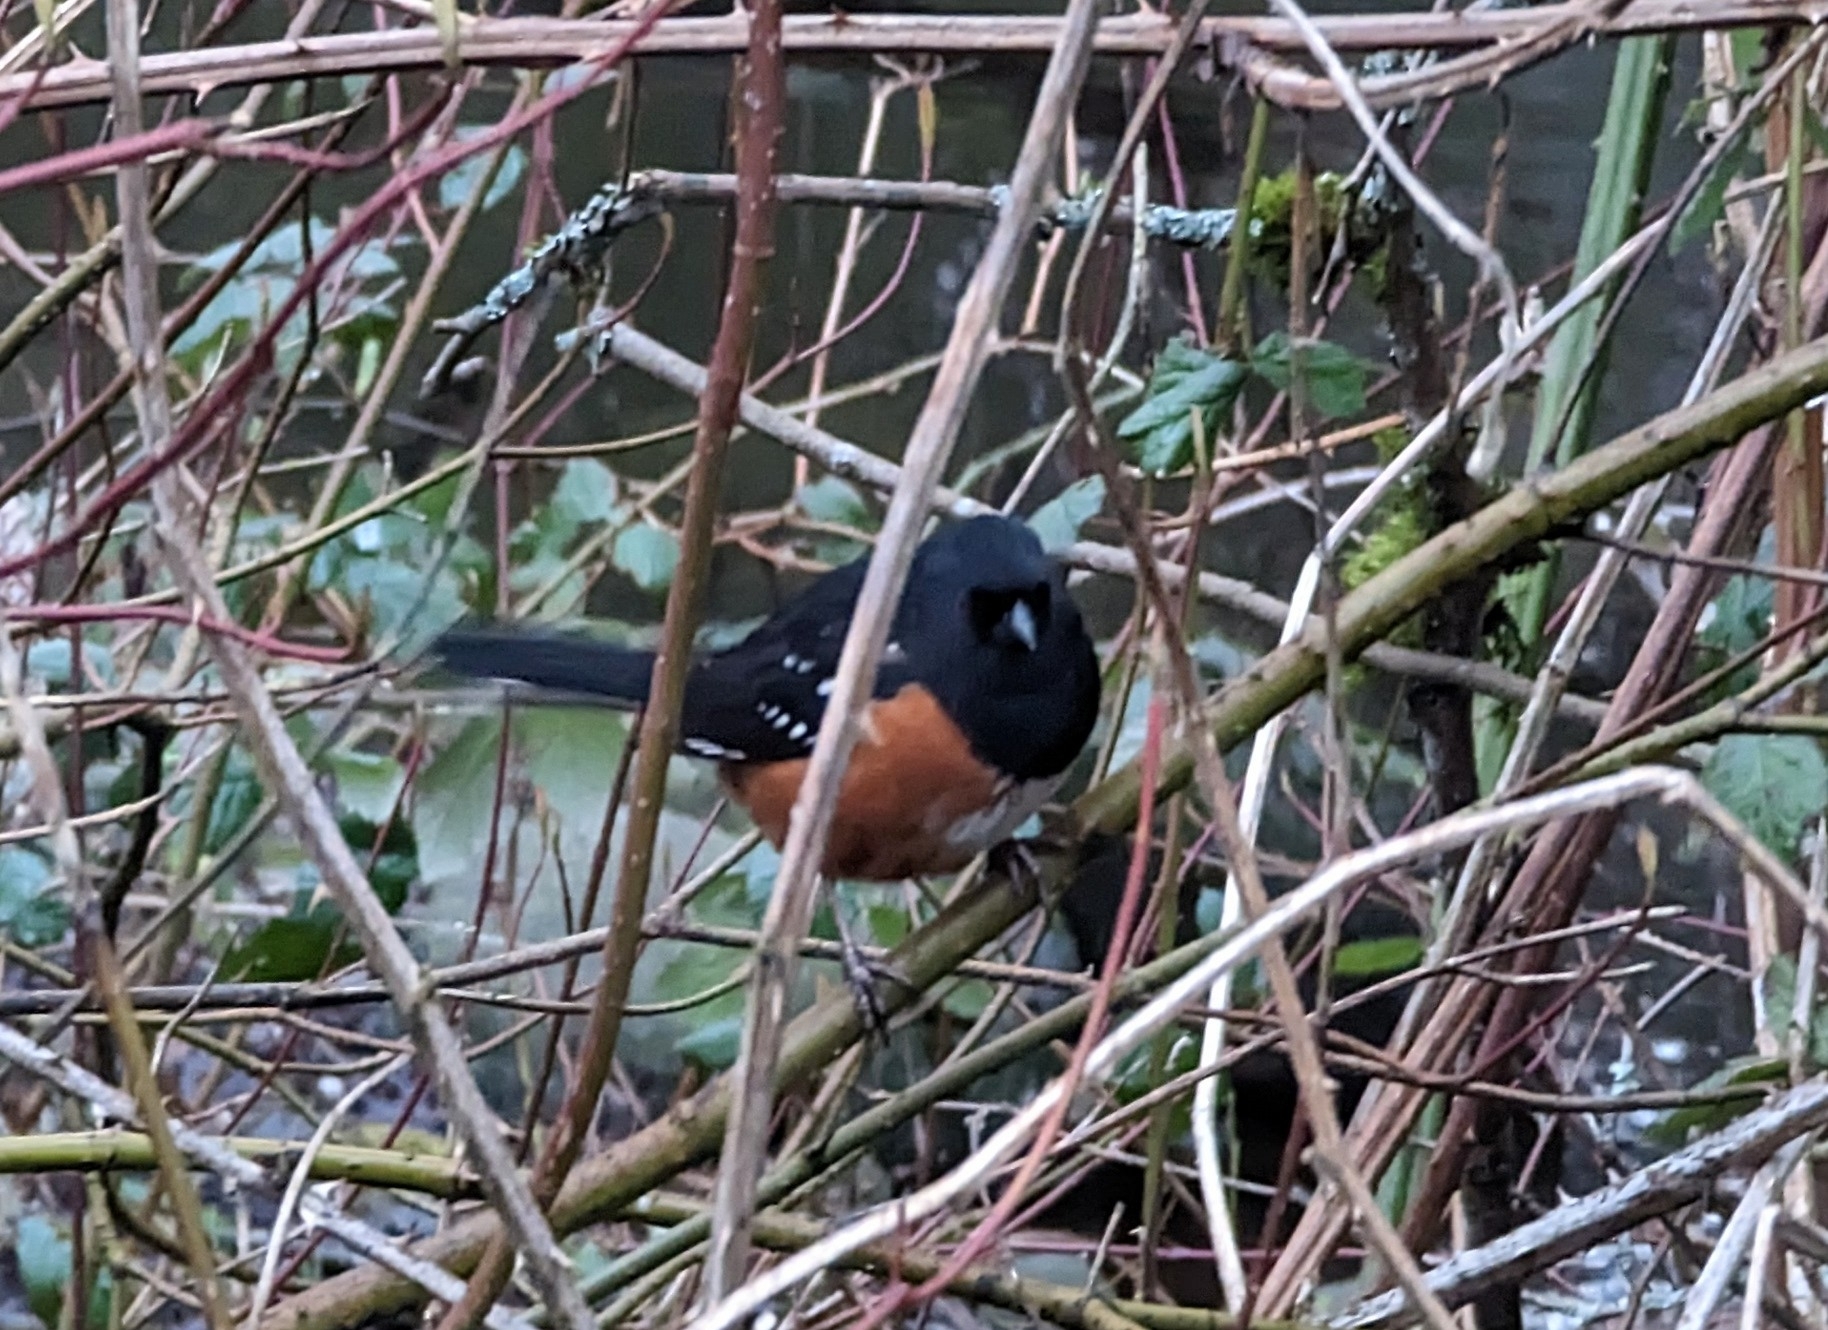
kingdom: Animalia
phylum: Chordata
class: Aves
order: Passeriformes
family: Passerellidae
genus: Pipilo
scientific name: Pipilo maculatus
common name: Spotted towhee
